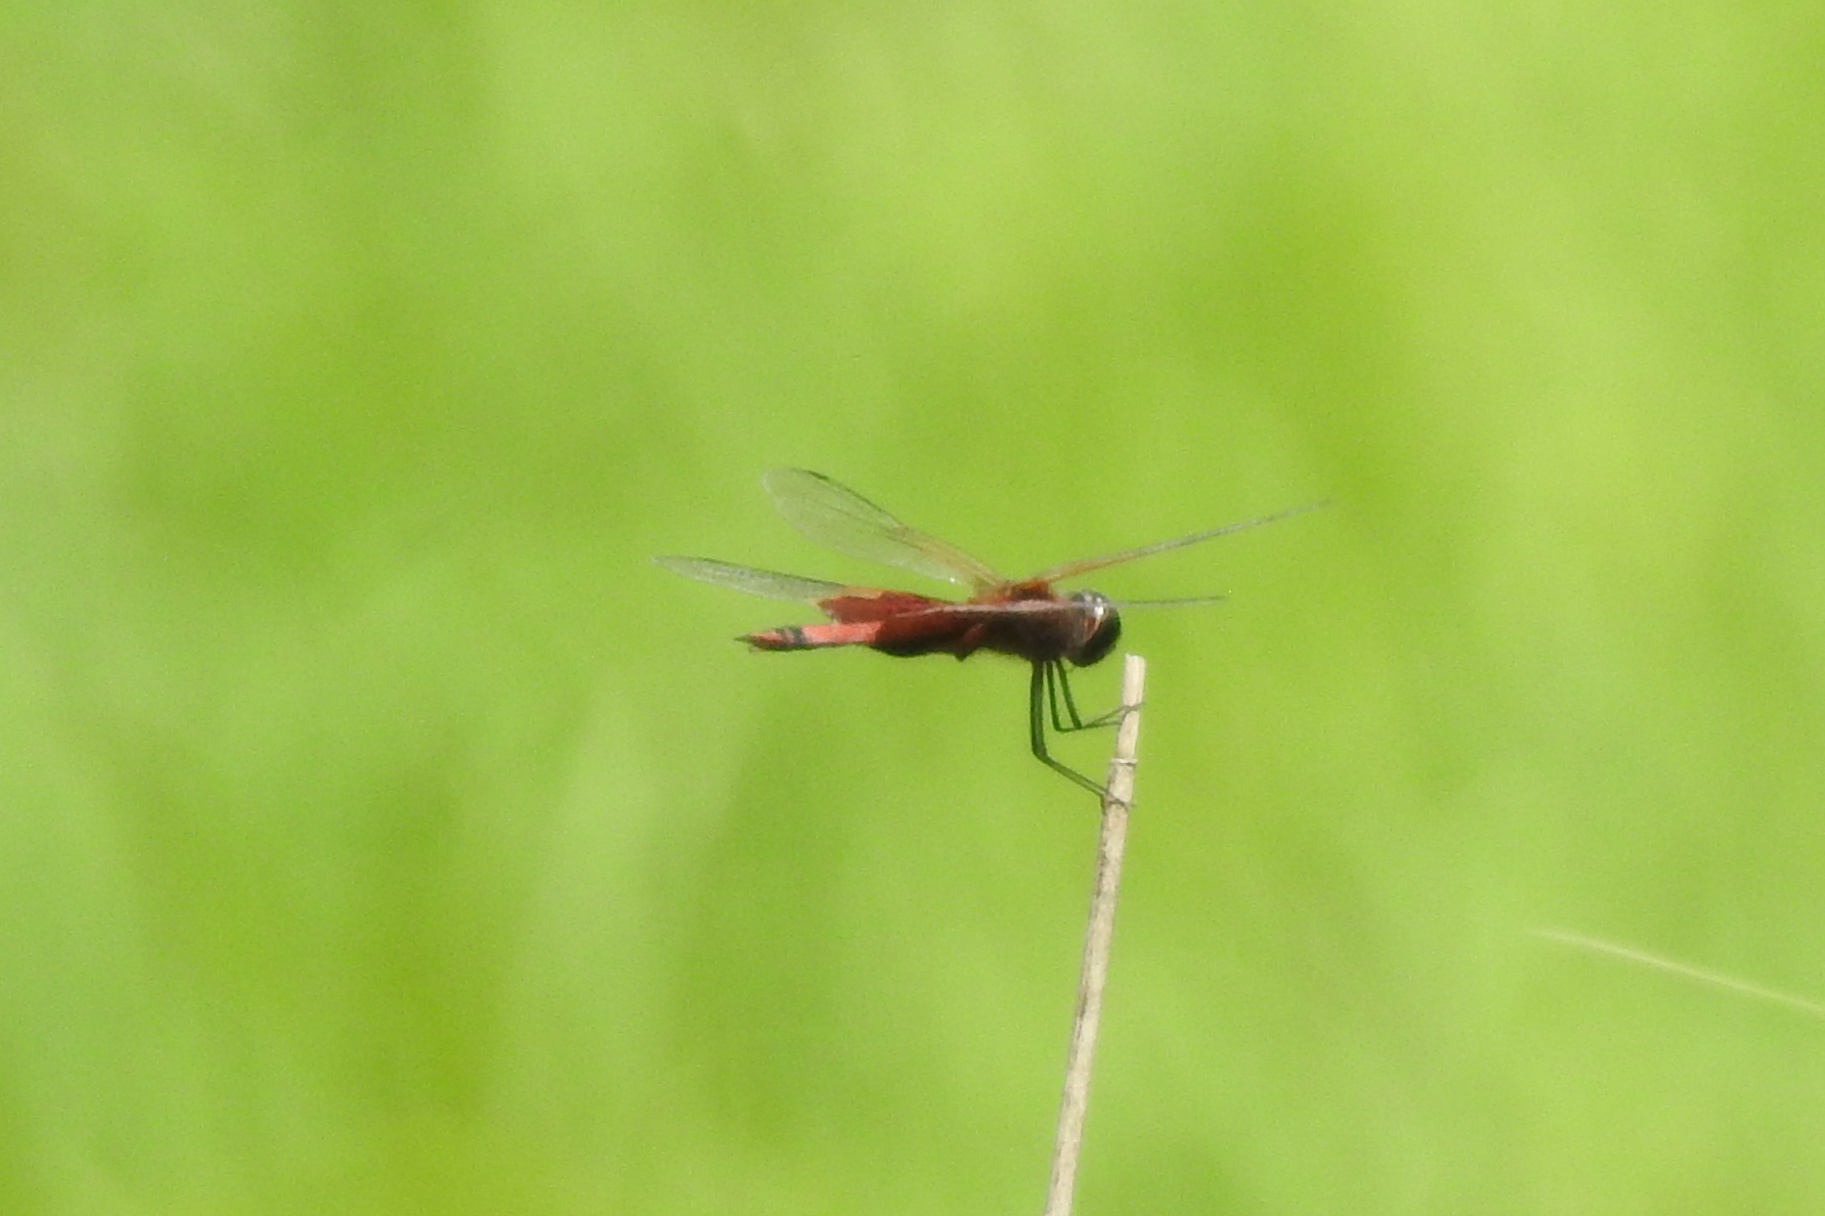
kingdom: Animalia
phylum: Arthropoda
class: Insecta
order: Odonata
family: Libellulidae
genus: Tramea
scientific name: Tramea carolina
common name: Carolina saddlebags
